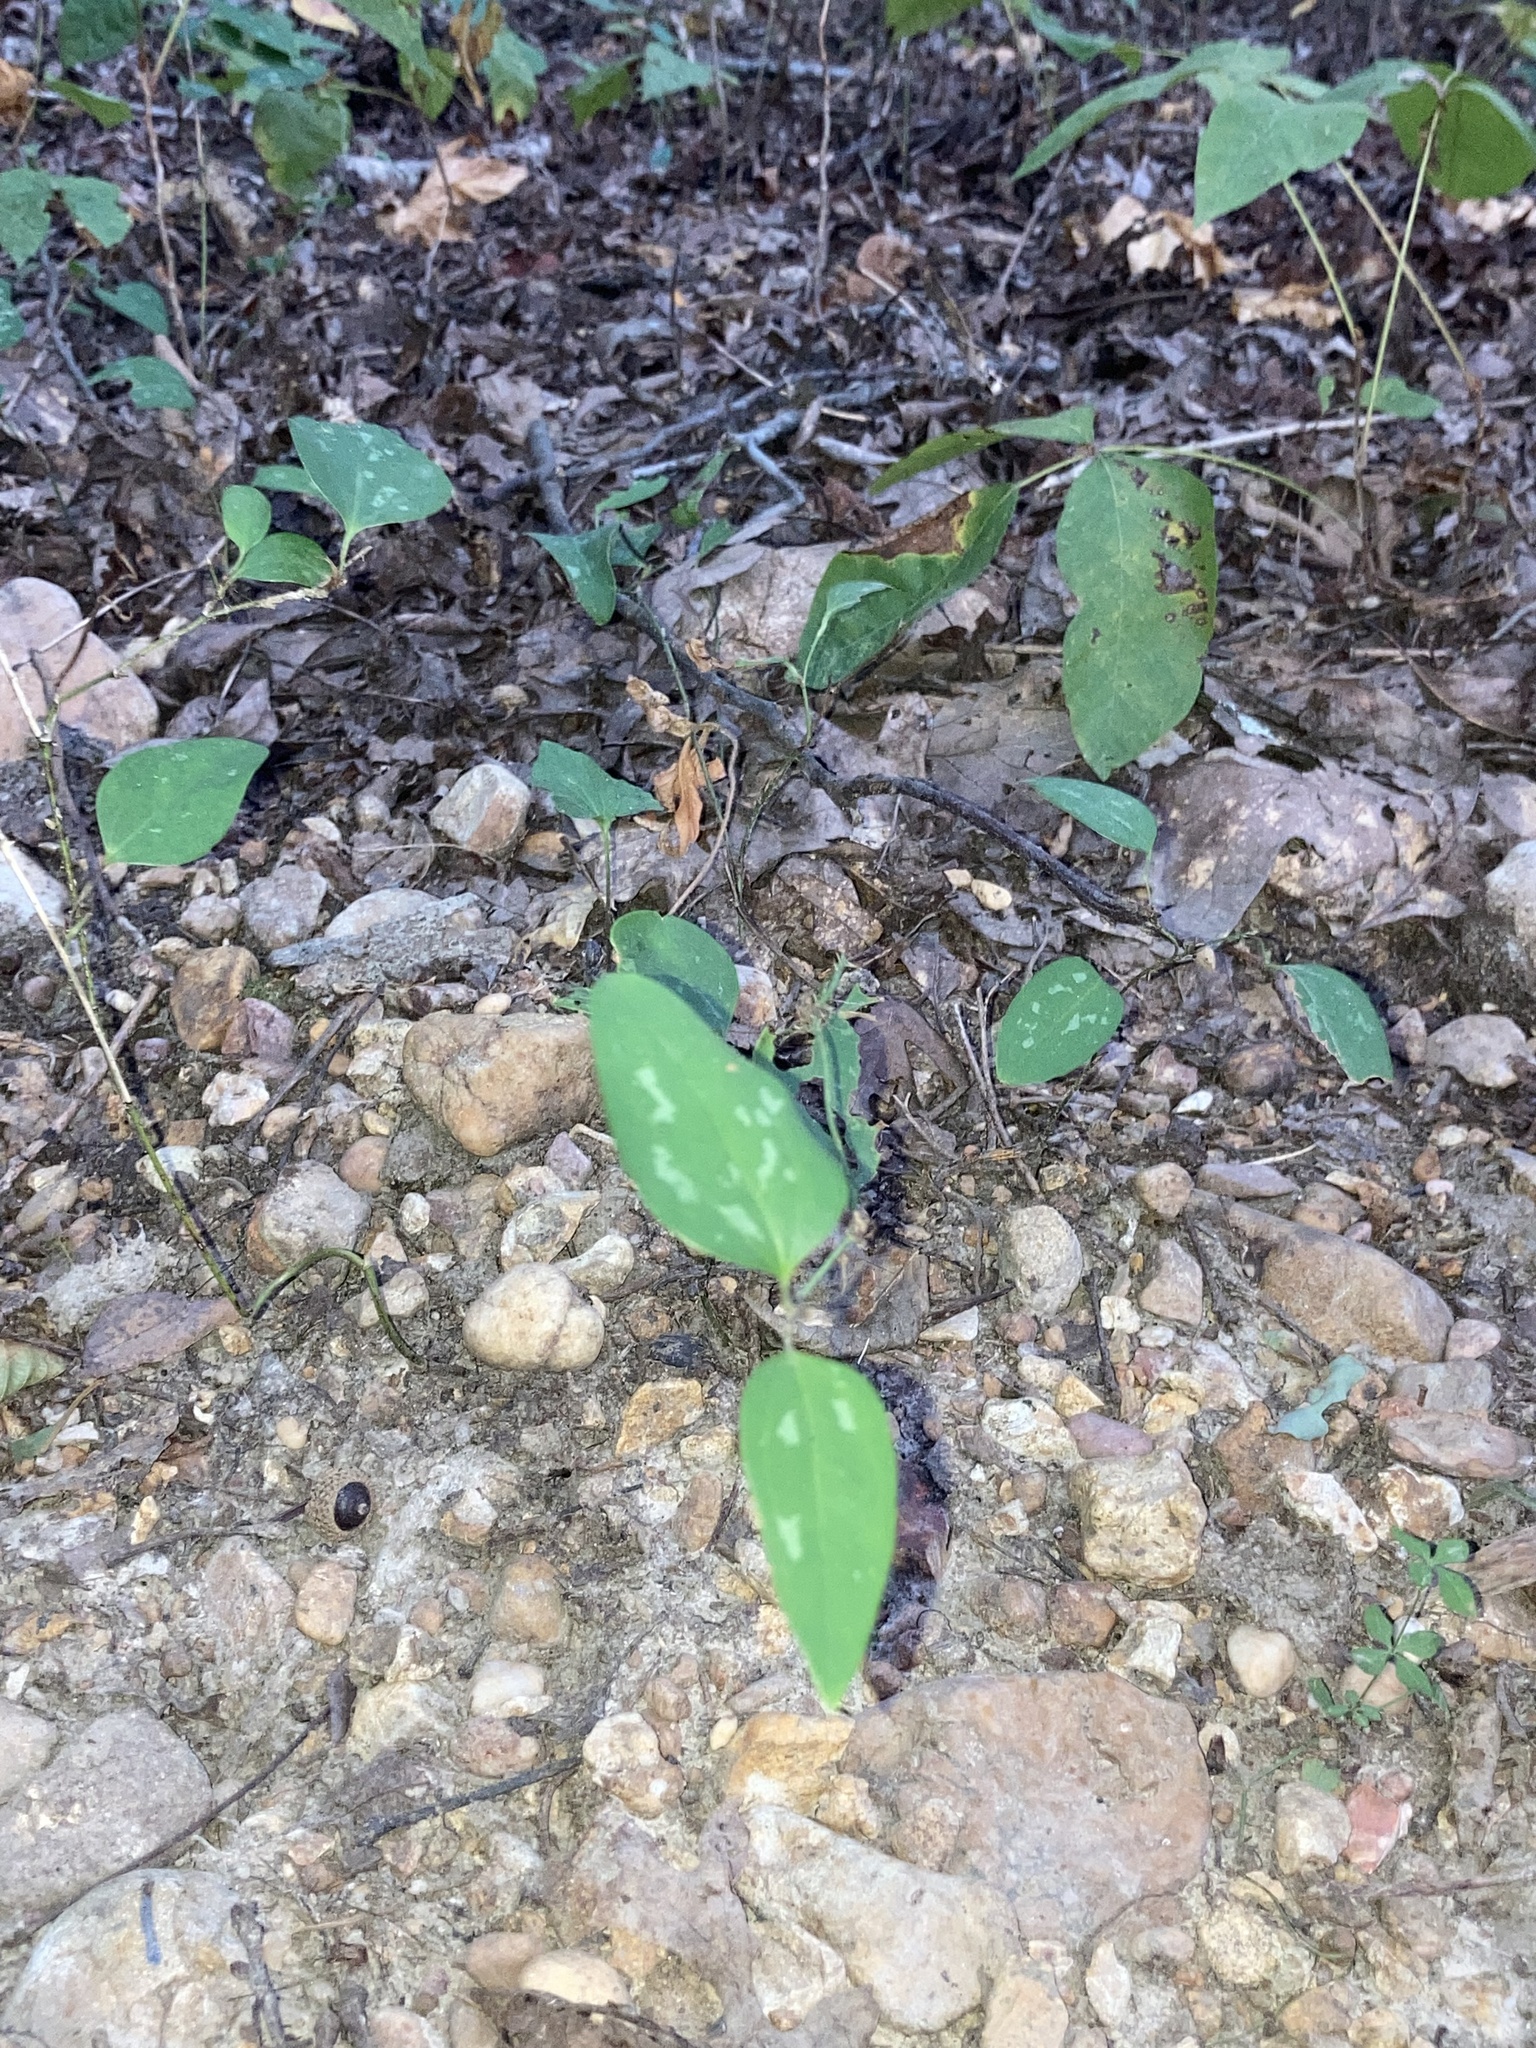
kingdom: Plantae
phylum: Tracheophyta
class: Liliopsida
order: Liliales
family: Smilacaceae
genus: Smilax
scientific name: Smilax glauca
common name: Cat greenbrier
